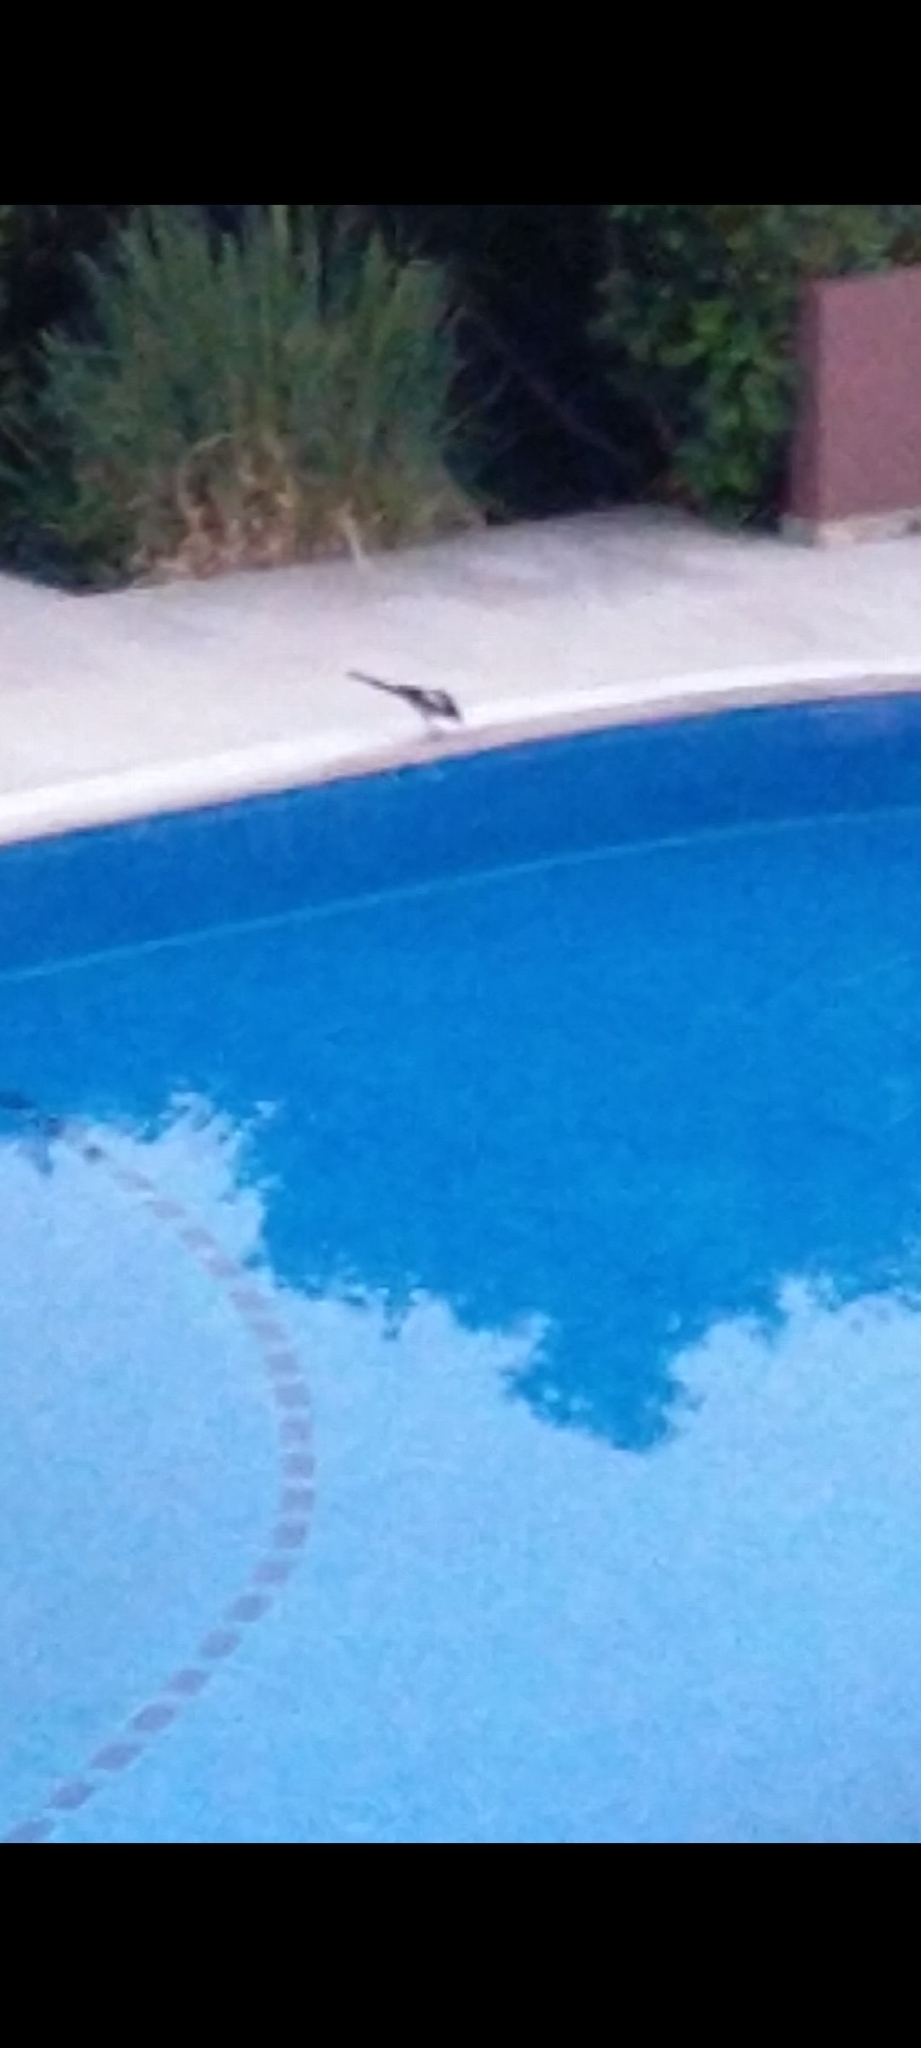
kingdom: Animalia
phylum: Chordata
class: Aves
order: Passeriformes
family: Corvidae
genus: Pica
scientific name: Pica pica
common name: Eurasian magpie
